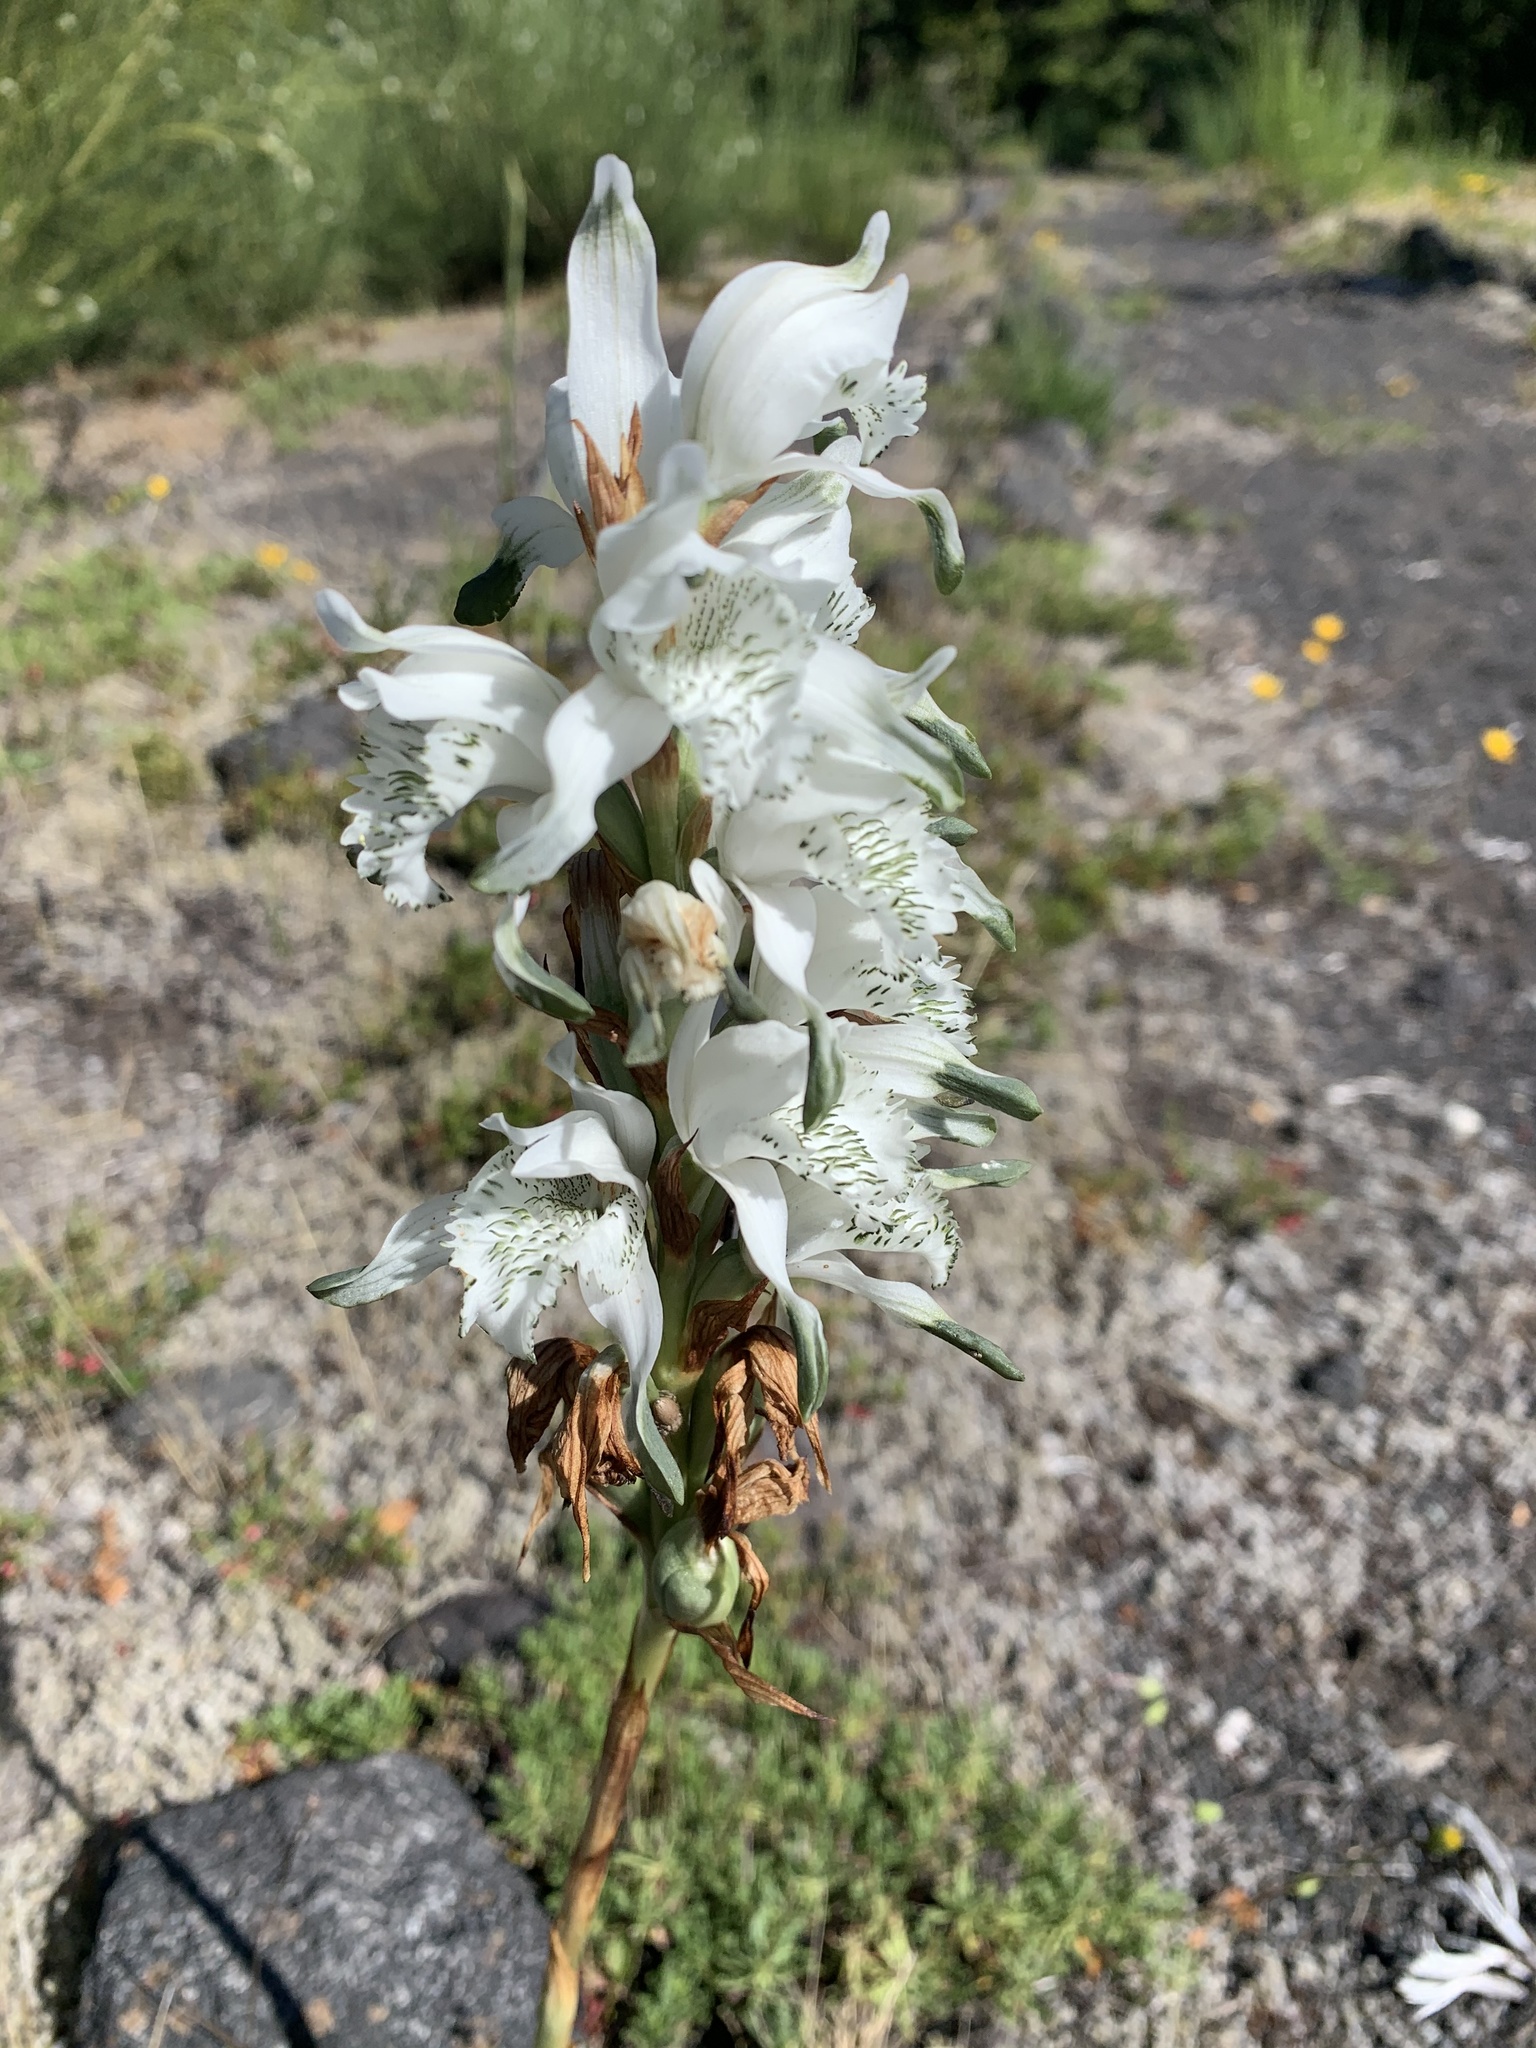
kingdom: Plantae
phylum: Tracheophyta
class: Liliopsida
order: Asparagales
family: Orchidaceae
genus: Chloraea
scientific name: Chloraea piquichen
